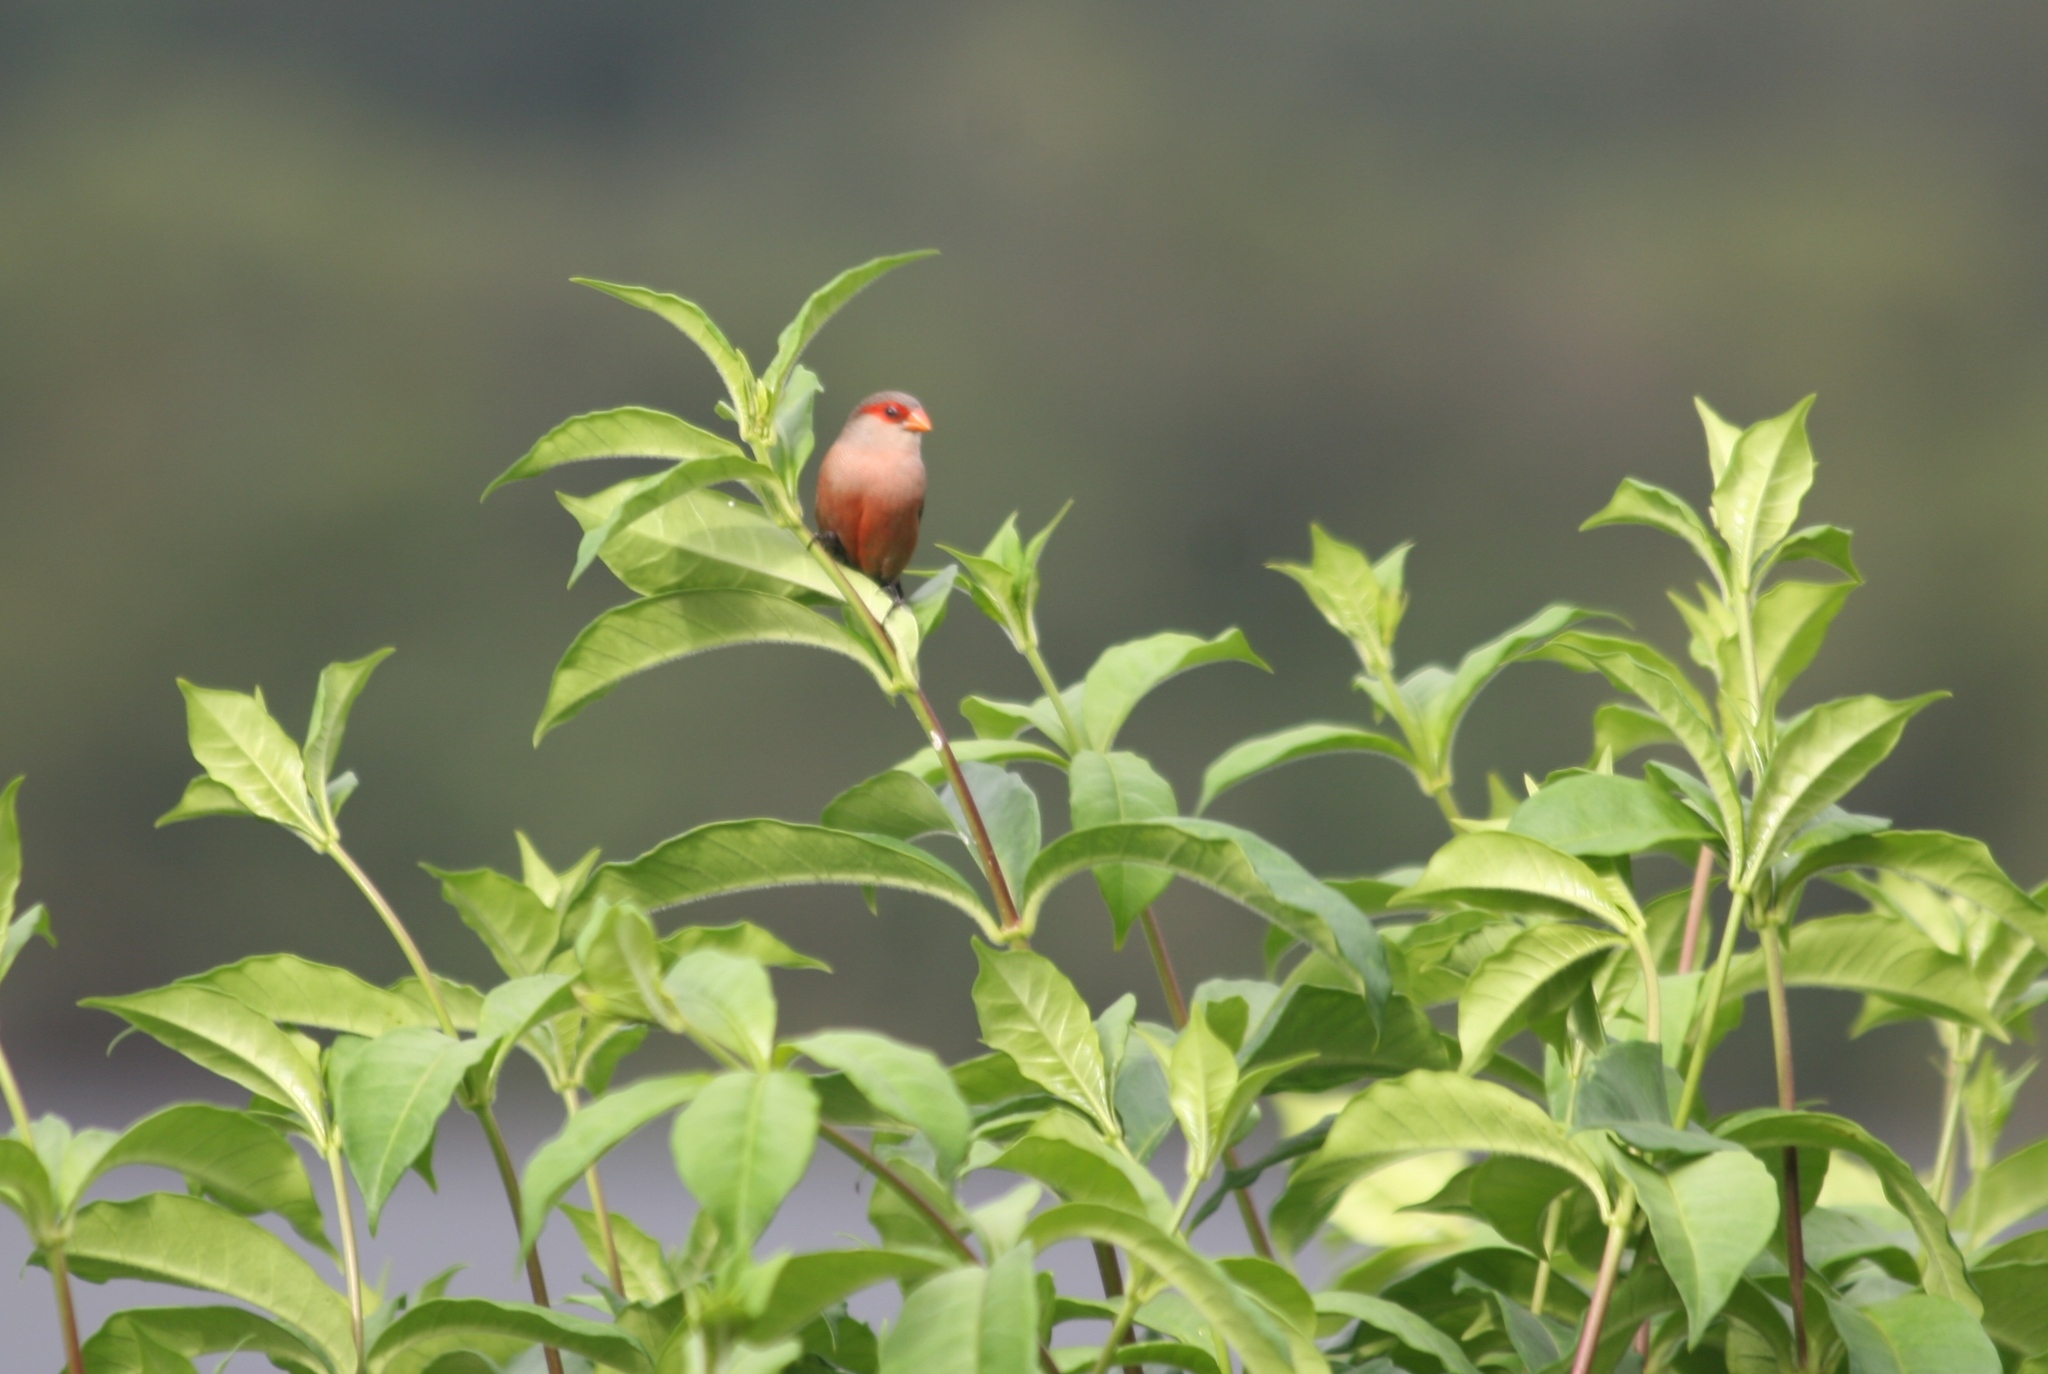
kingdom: Animalia
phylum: Chordata
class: Aves
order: Passeriformes
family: Estrildidae
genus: Estrilda
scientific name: Estrilda astrild
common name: Common waxbill
